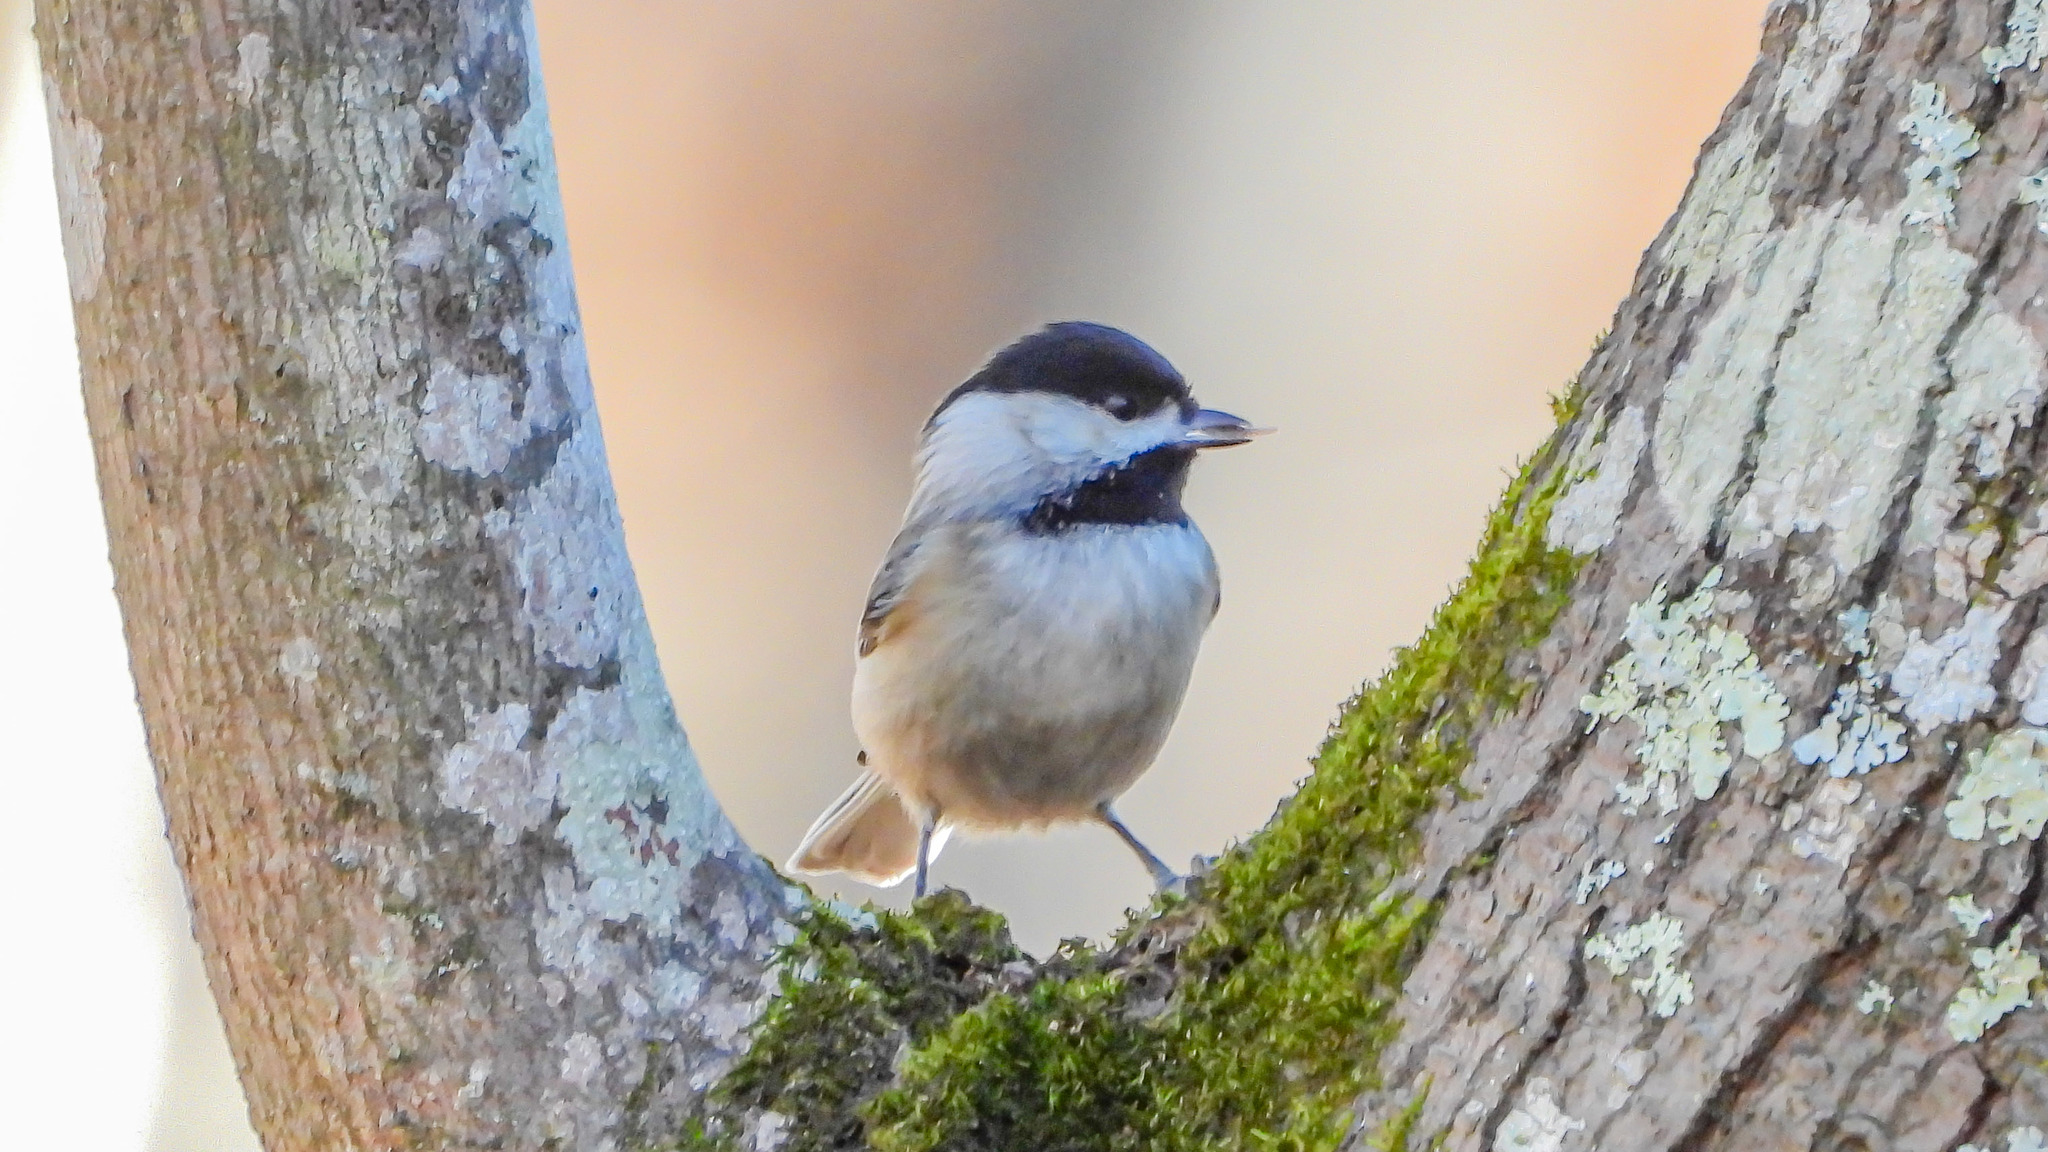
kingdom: Animalia
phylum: Chordata
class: Aves
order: Passeriformes
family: Paridae
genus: Poecile
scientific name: Poecile carolinensis
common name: Carolina chickadee
